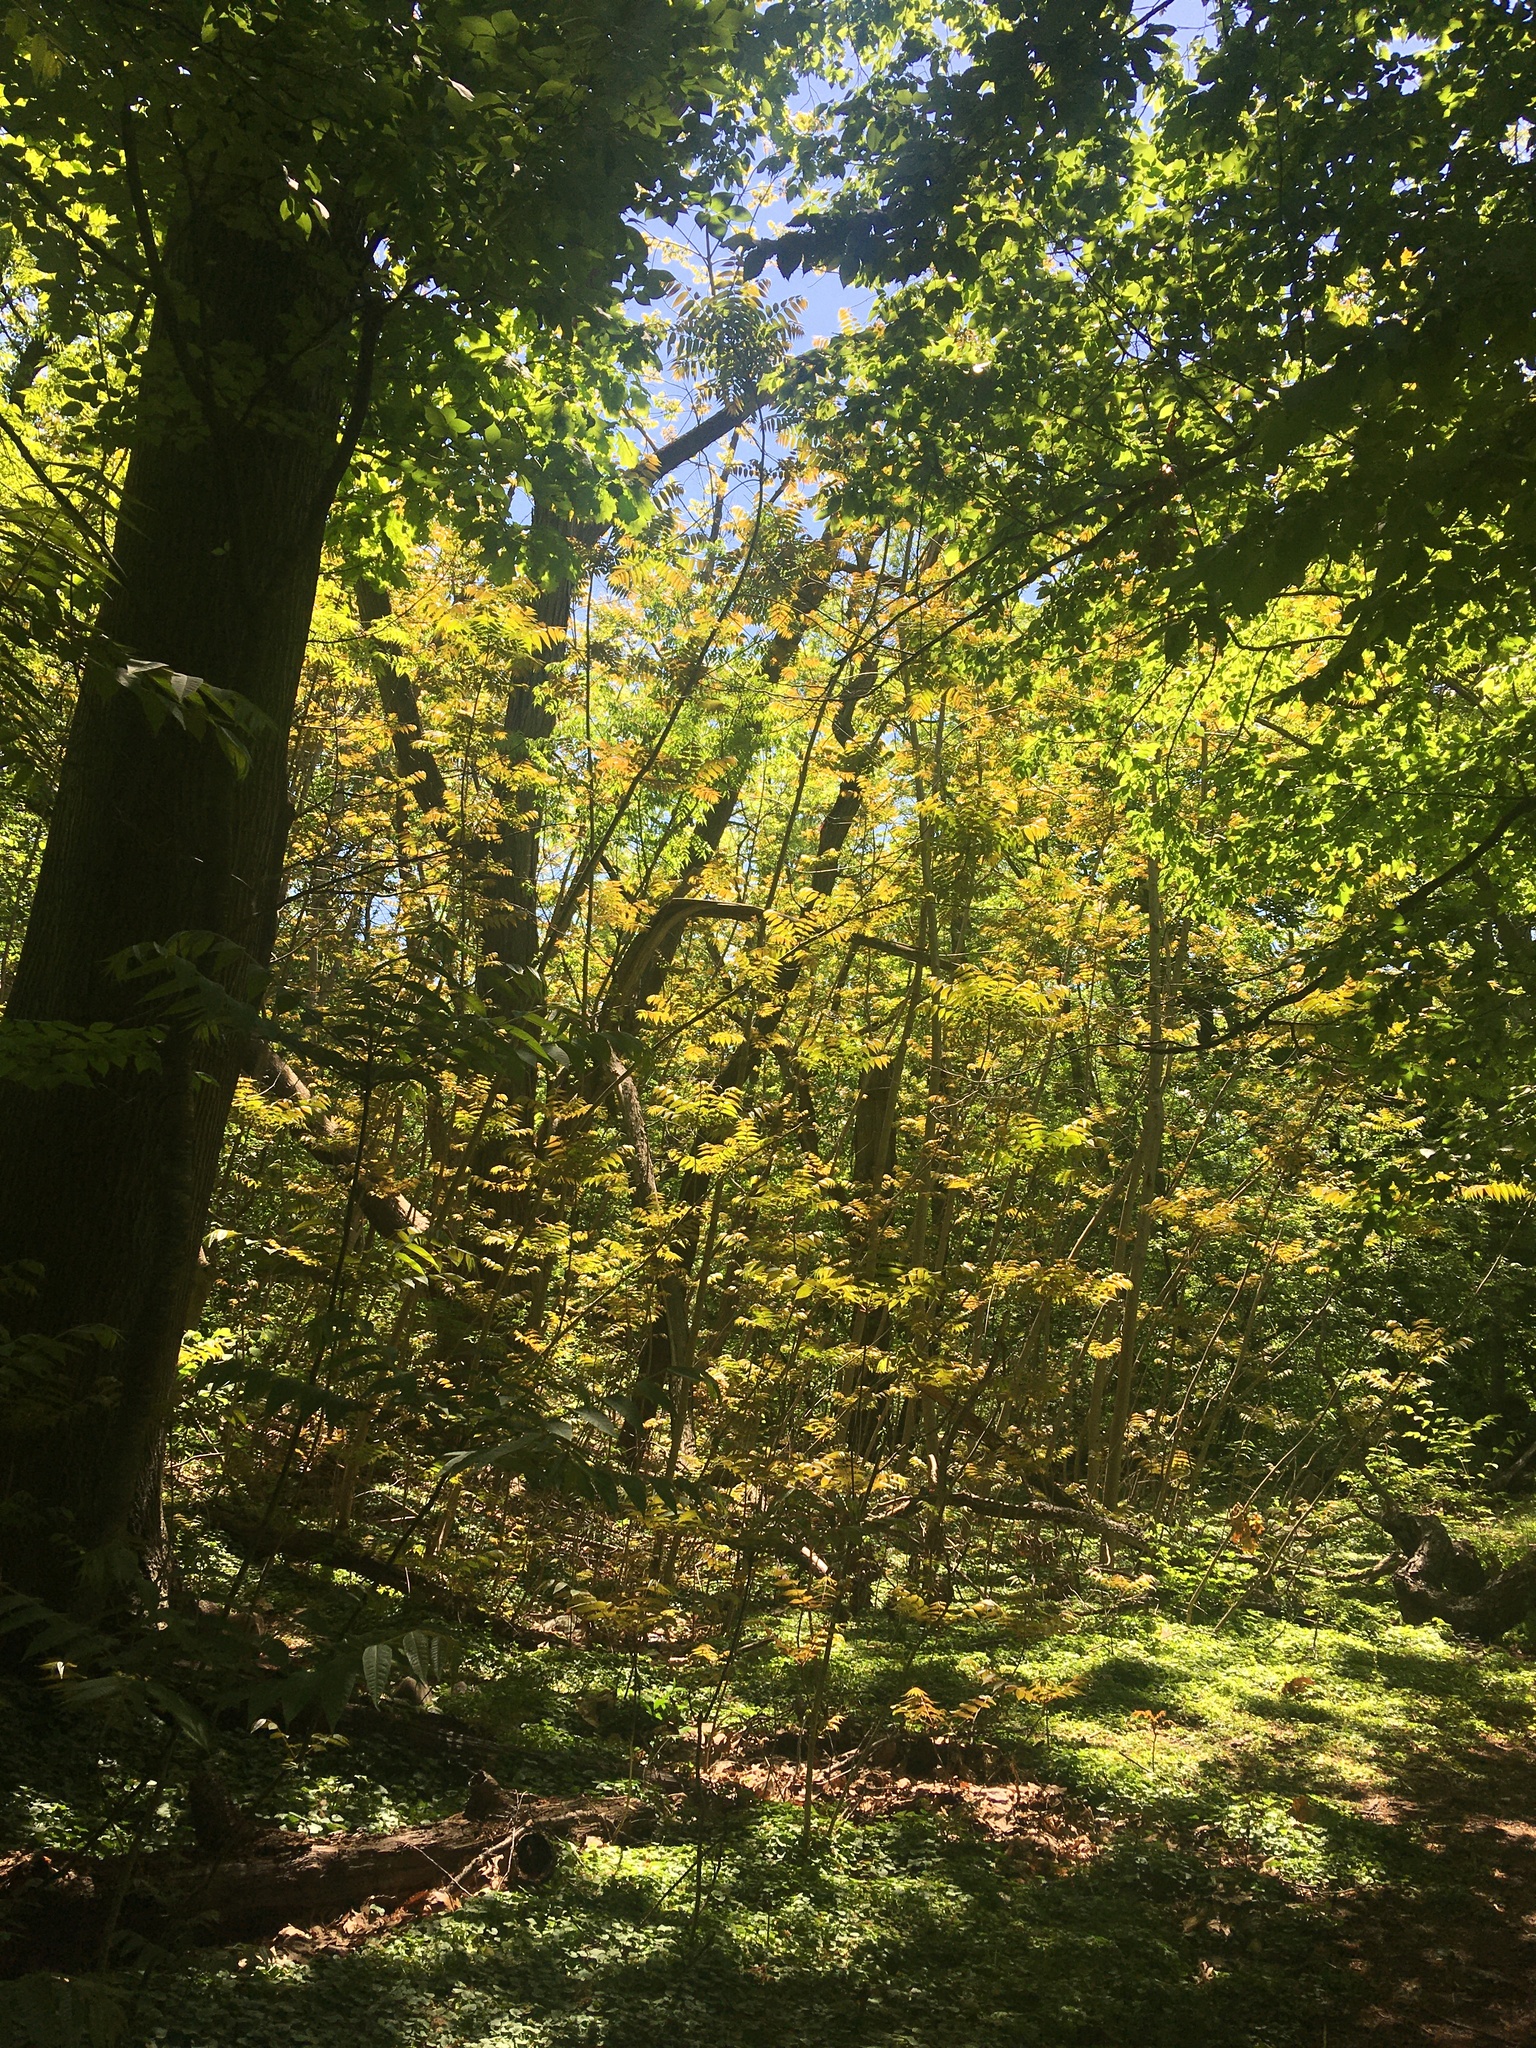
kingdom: Plantae
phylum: Tracheophyta
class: Magnoliopsida
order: Sapindales
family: Meliaceae
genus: Toona
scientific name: Toona sinensis
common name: Red toon
